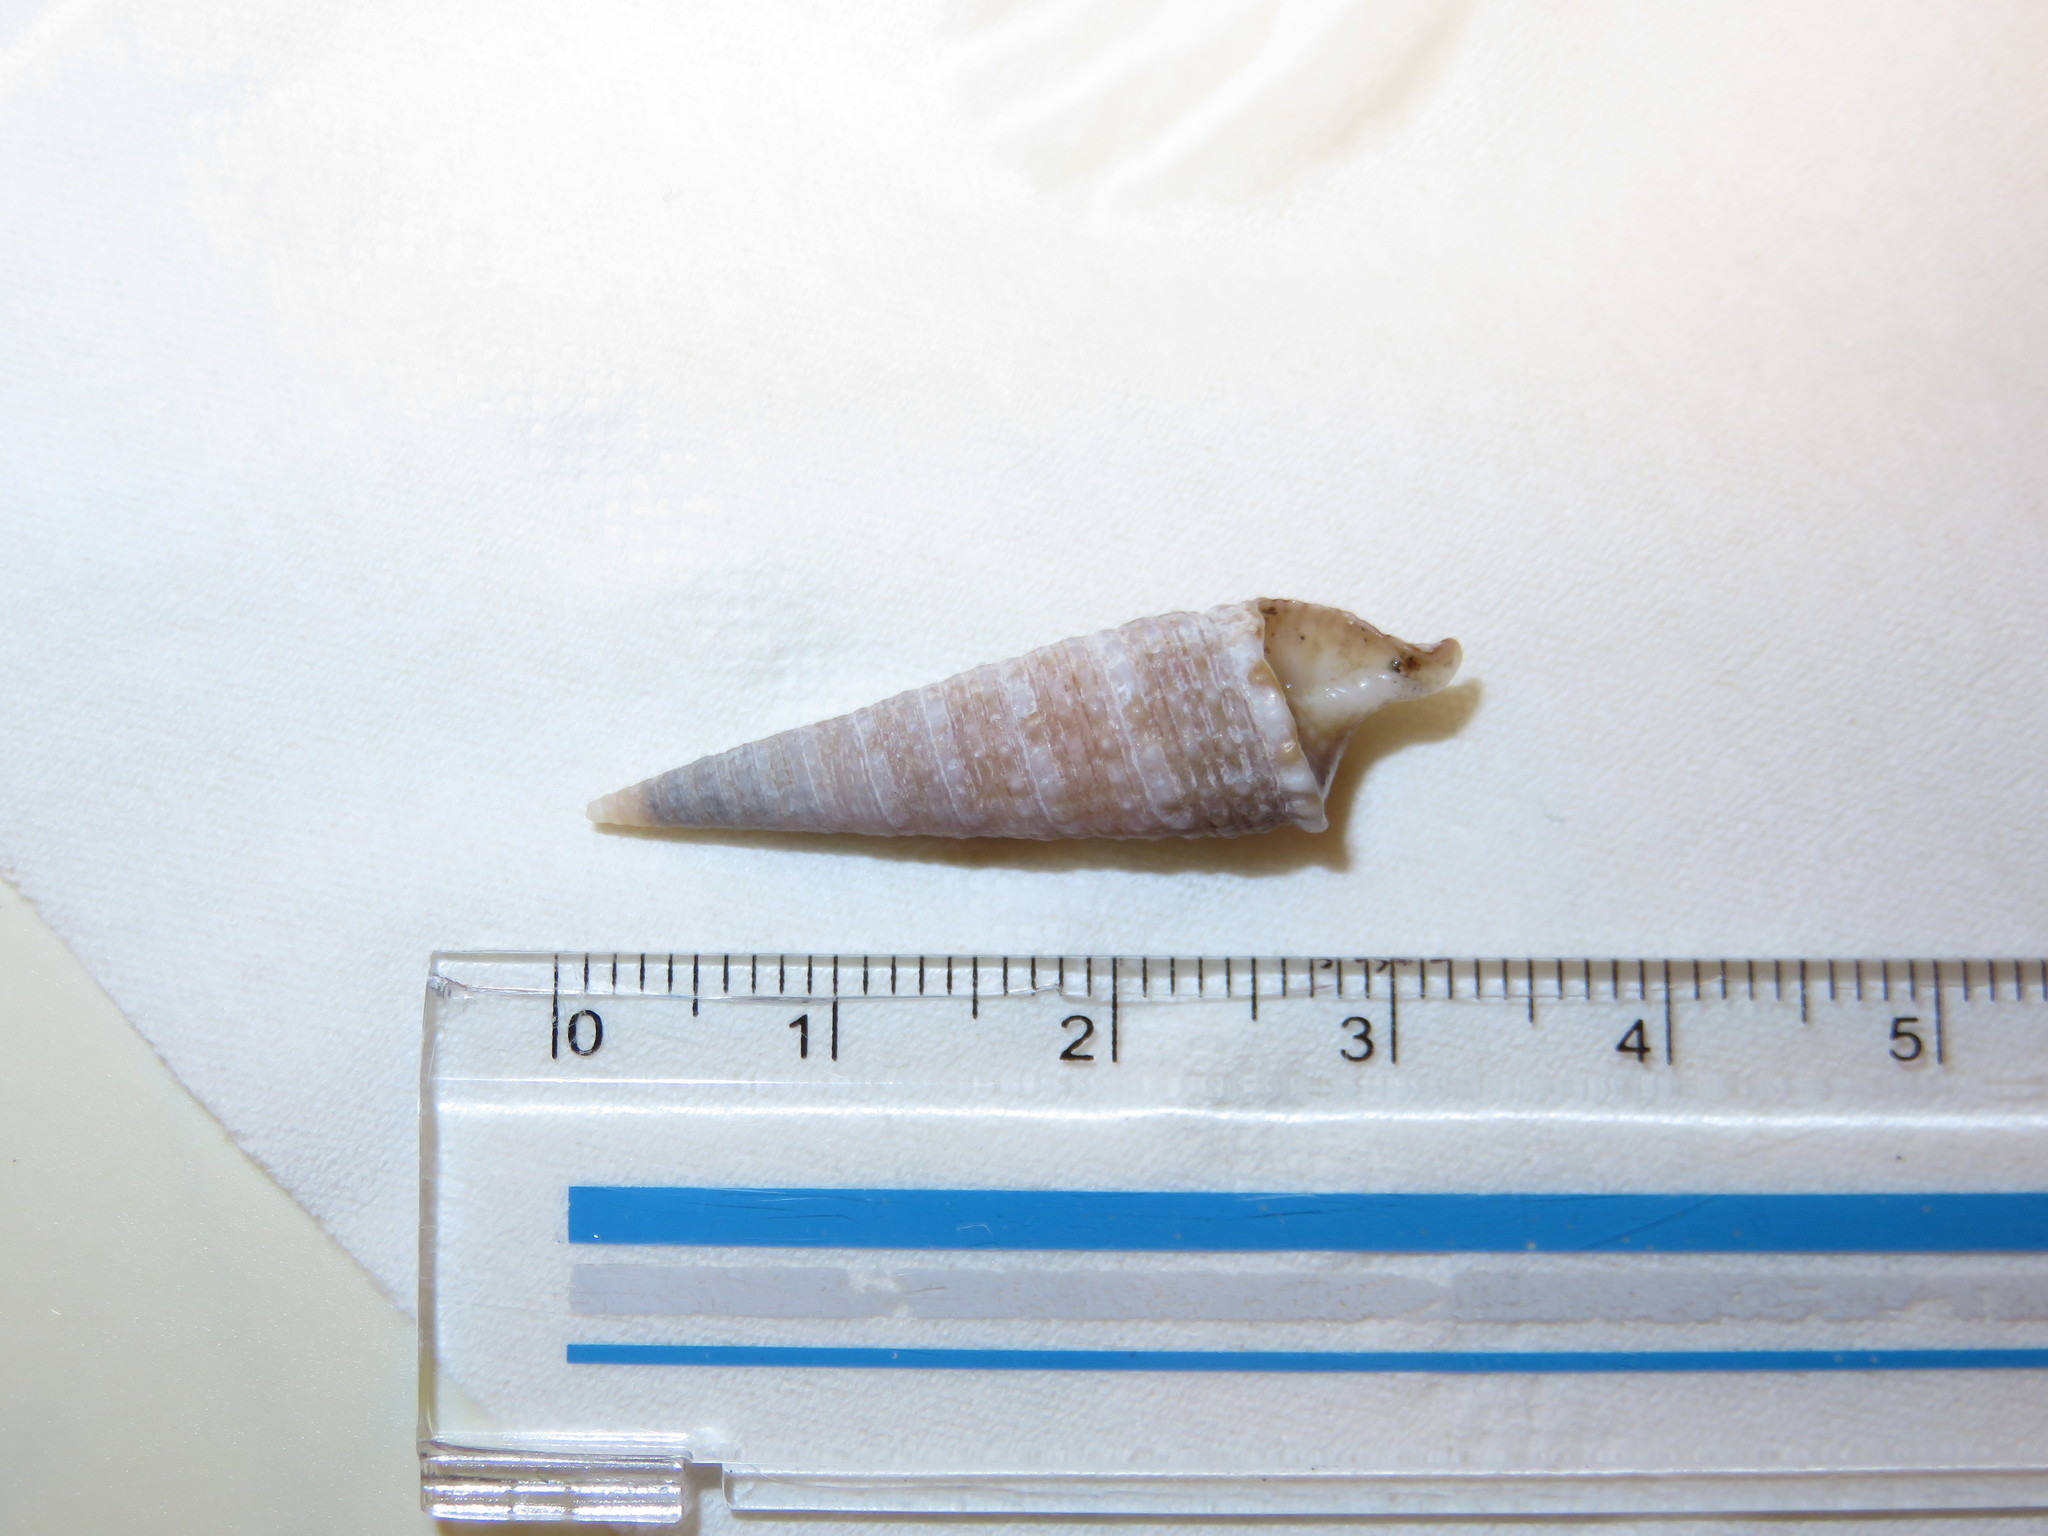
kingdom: Animalia
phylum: Mollusca
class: Gastropoda
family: Cerithiidae
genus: Rhinoclavis
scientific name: Rhinoclavis kochi
